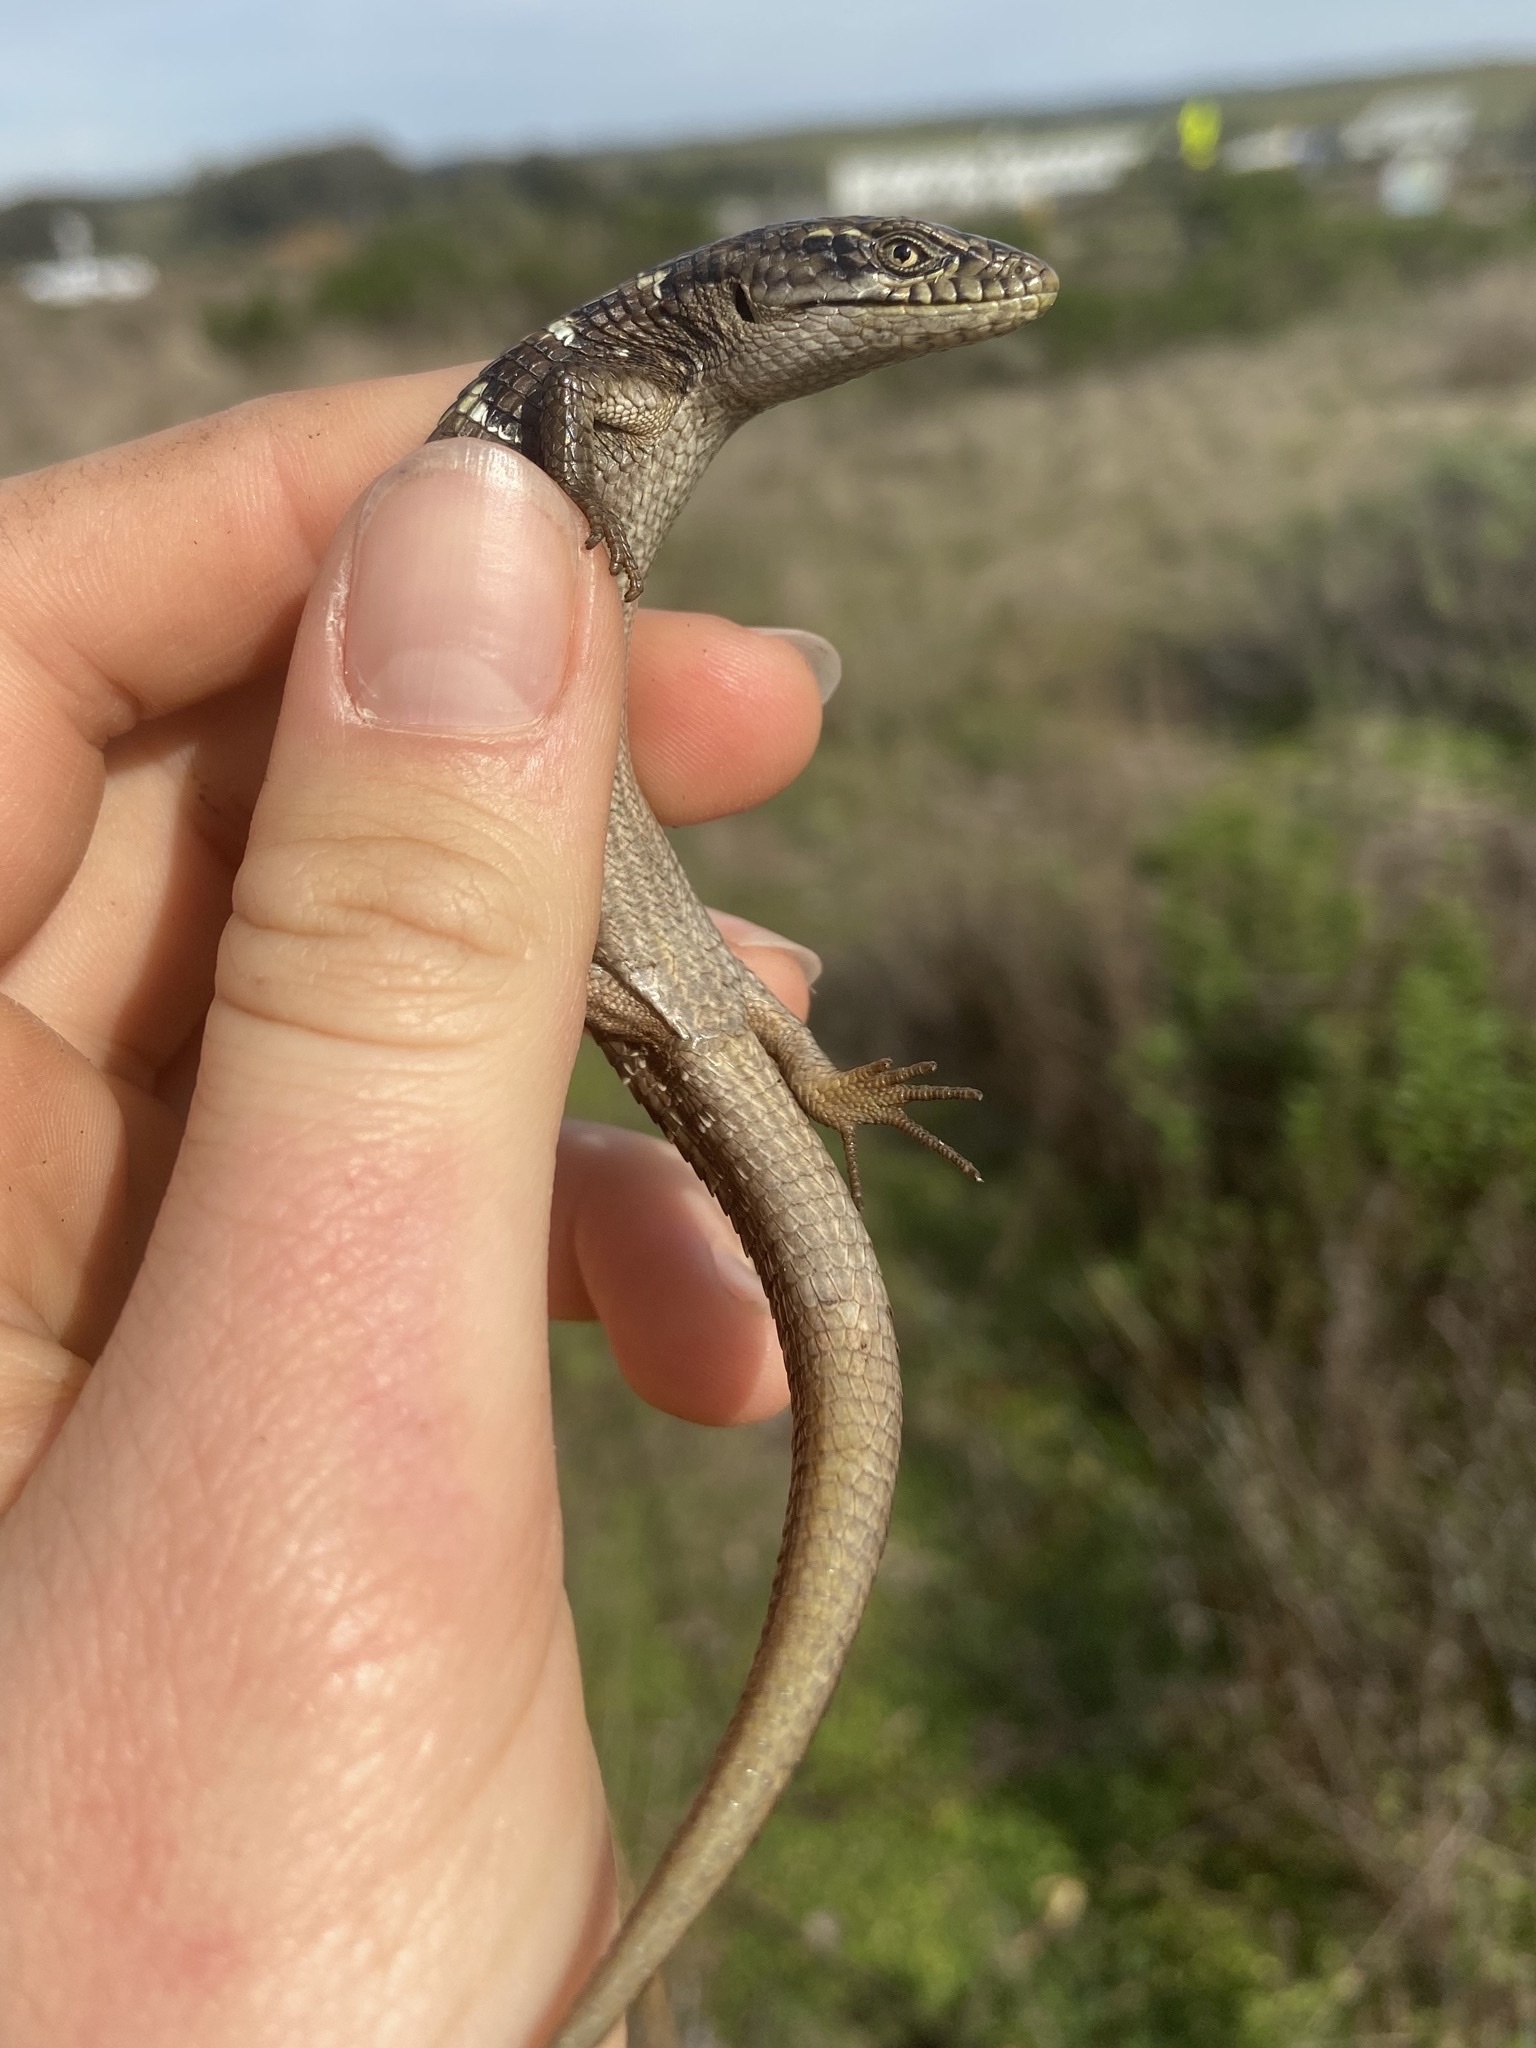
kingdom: Animalia
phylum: Chordata
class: Squamata
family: Anguidae
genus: Elgaria
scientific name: Elgaria multicarinata
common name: Southern alligator lizard
